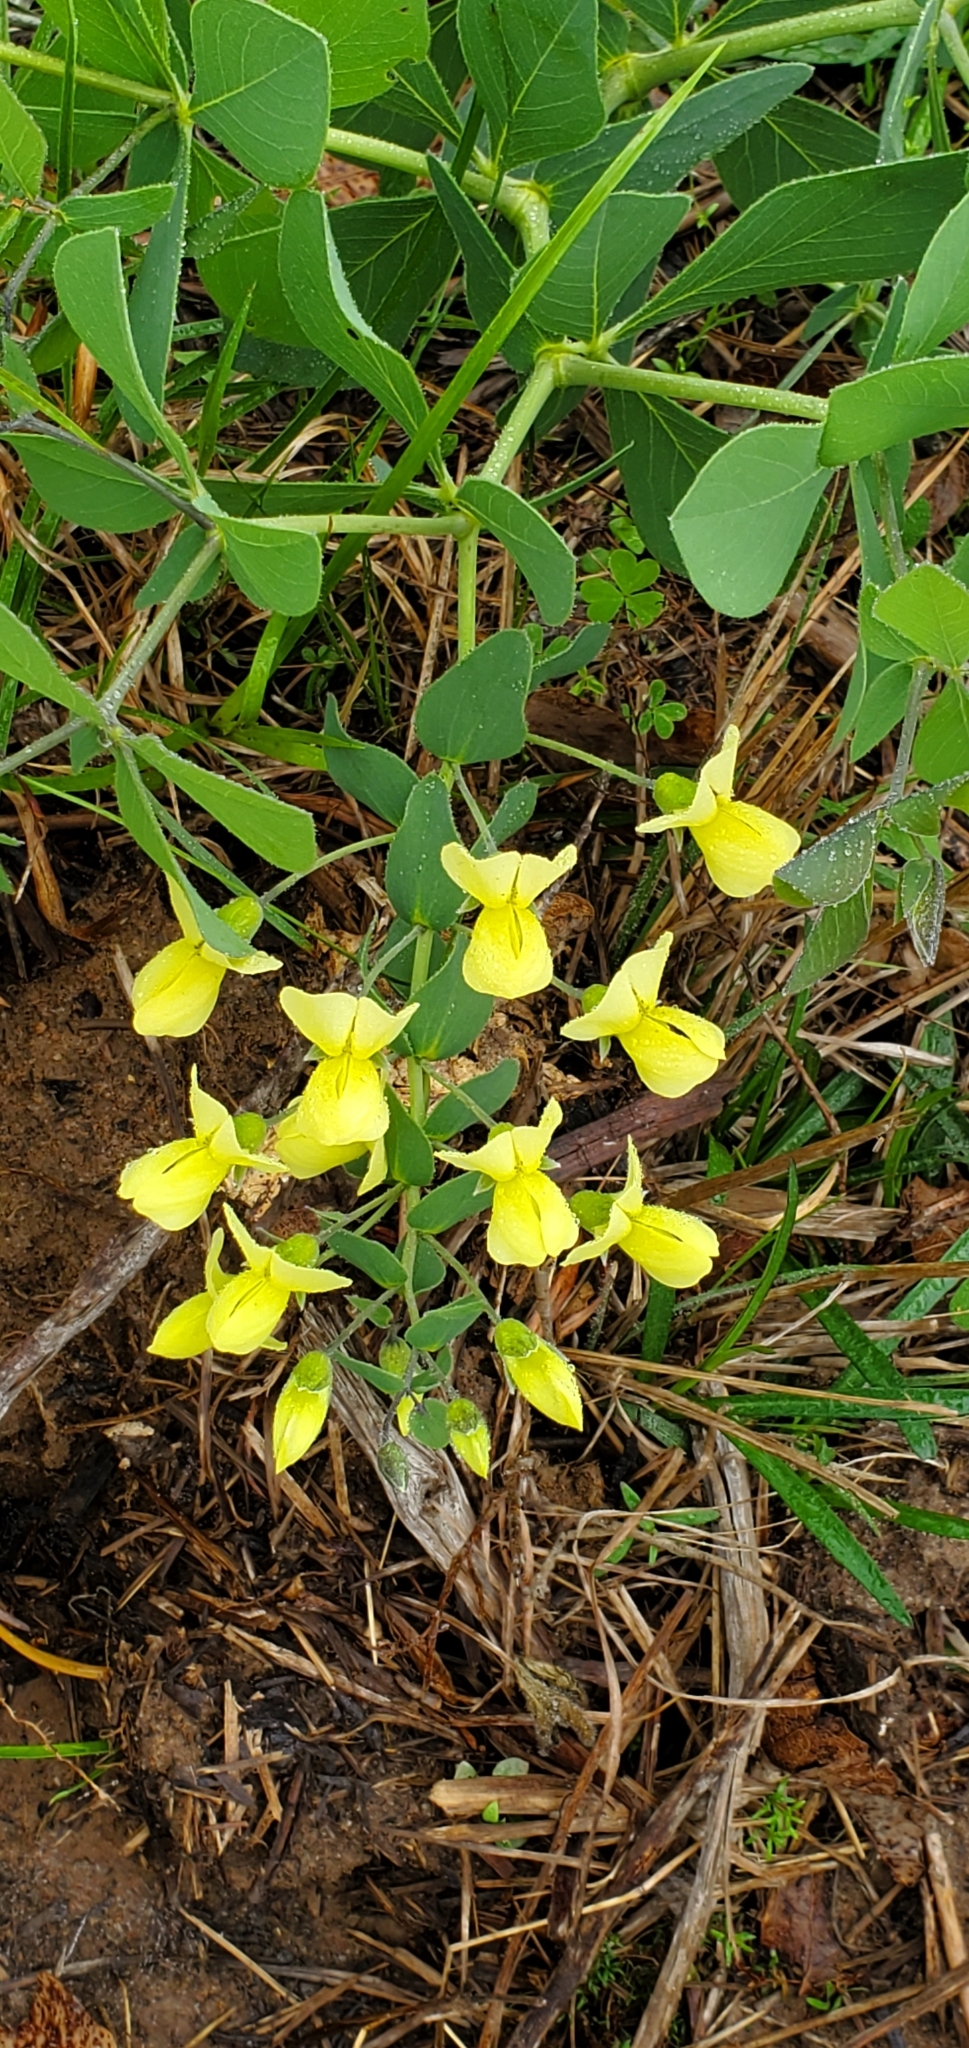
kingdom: Plantae
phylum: Tracheophyta
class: Magnoliopsida
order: Fabales
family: Fabaceae
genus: Baptisia
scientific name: Baptisia bracteata
